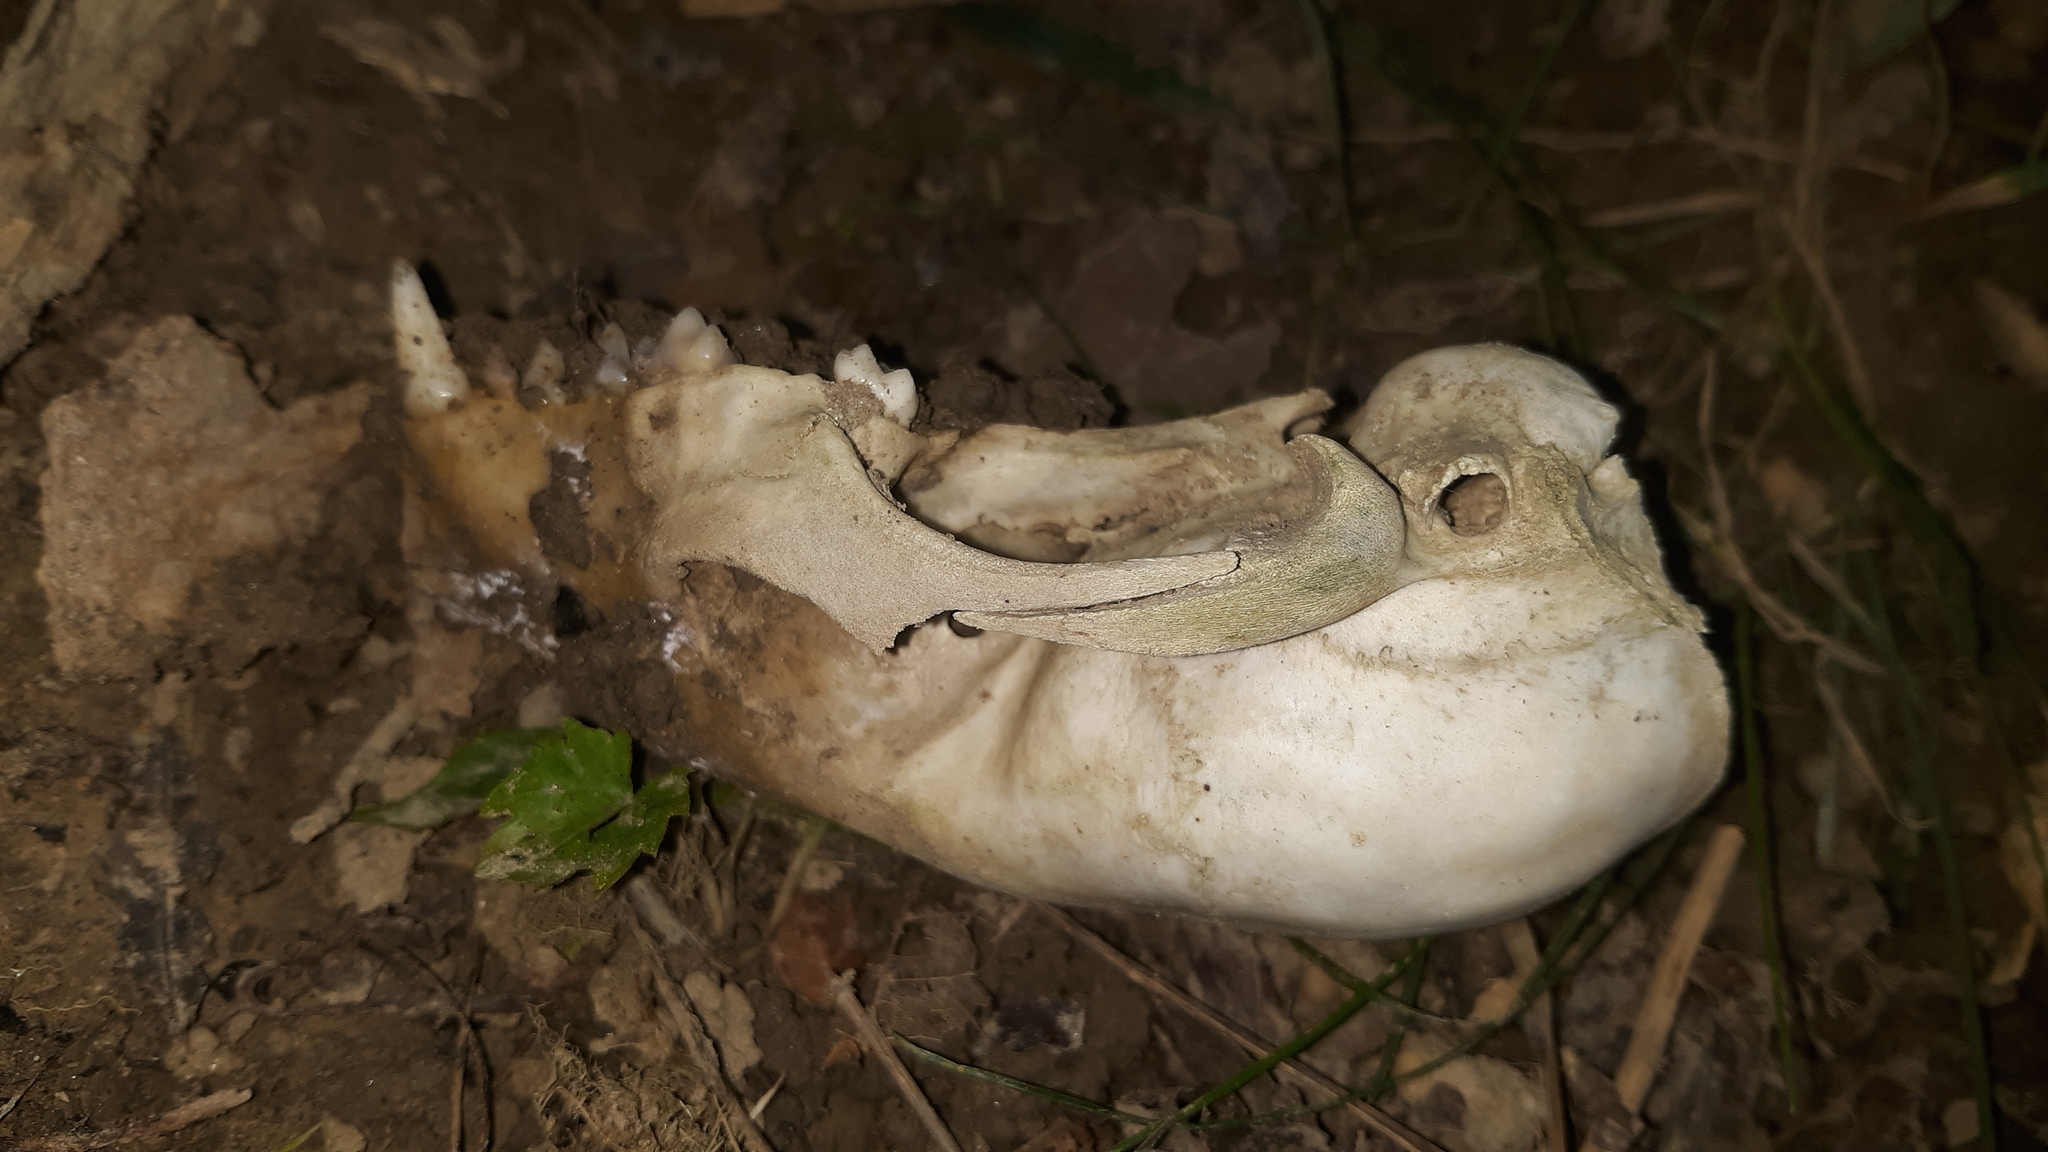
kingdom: Animalia
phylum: Chordata
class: Mammalia
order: Carnivora
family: Procyonidae
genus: Procyon
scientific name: Procyon lotor
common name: Raccoon
